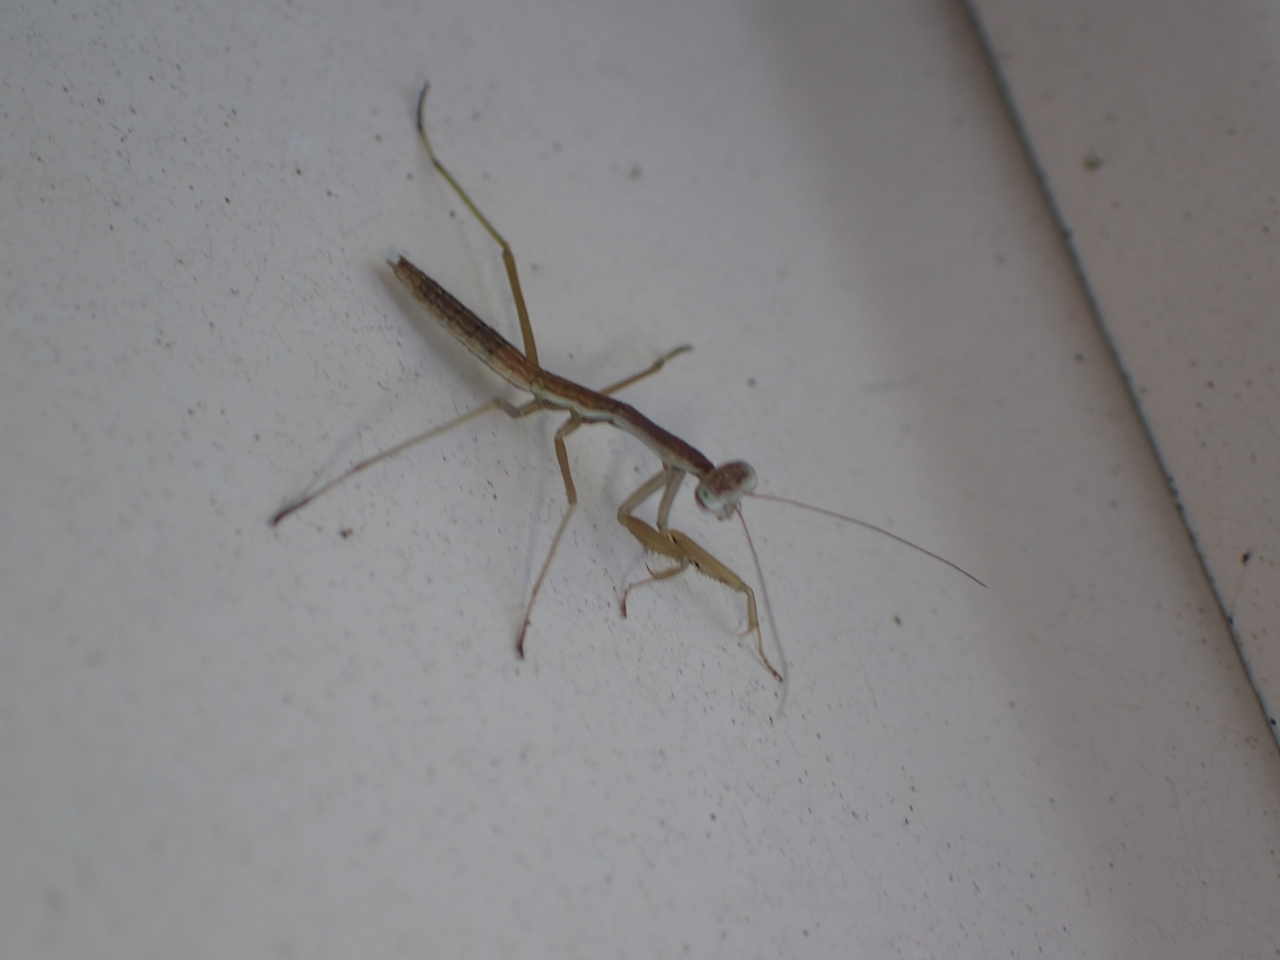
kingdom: Animalia
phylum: Arthropoda
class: Insecta
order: Mantodea
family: Mantidae
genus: Tenodera
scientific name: Tenodera sinensis
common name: Chinese mantis
